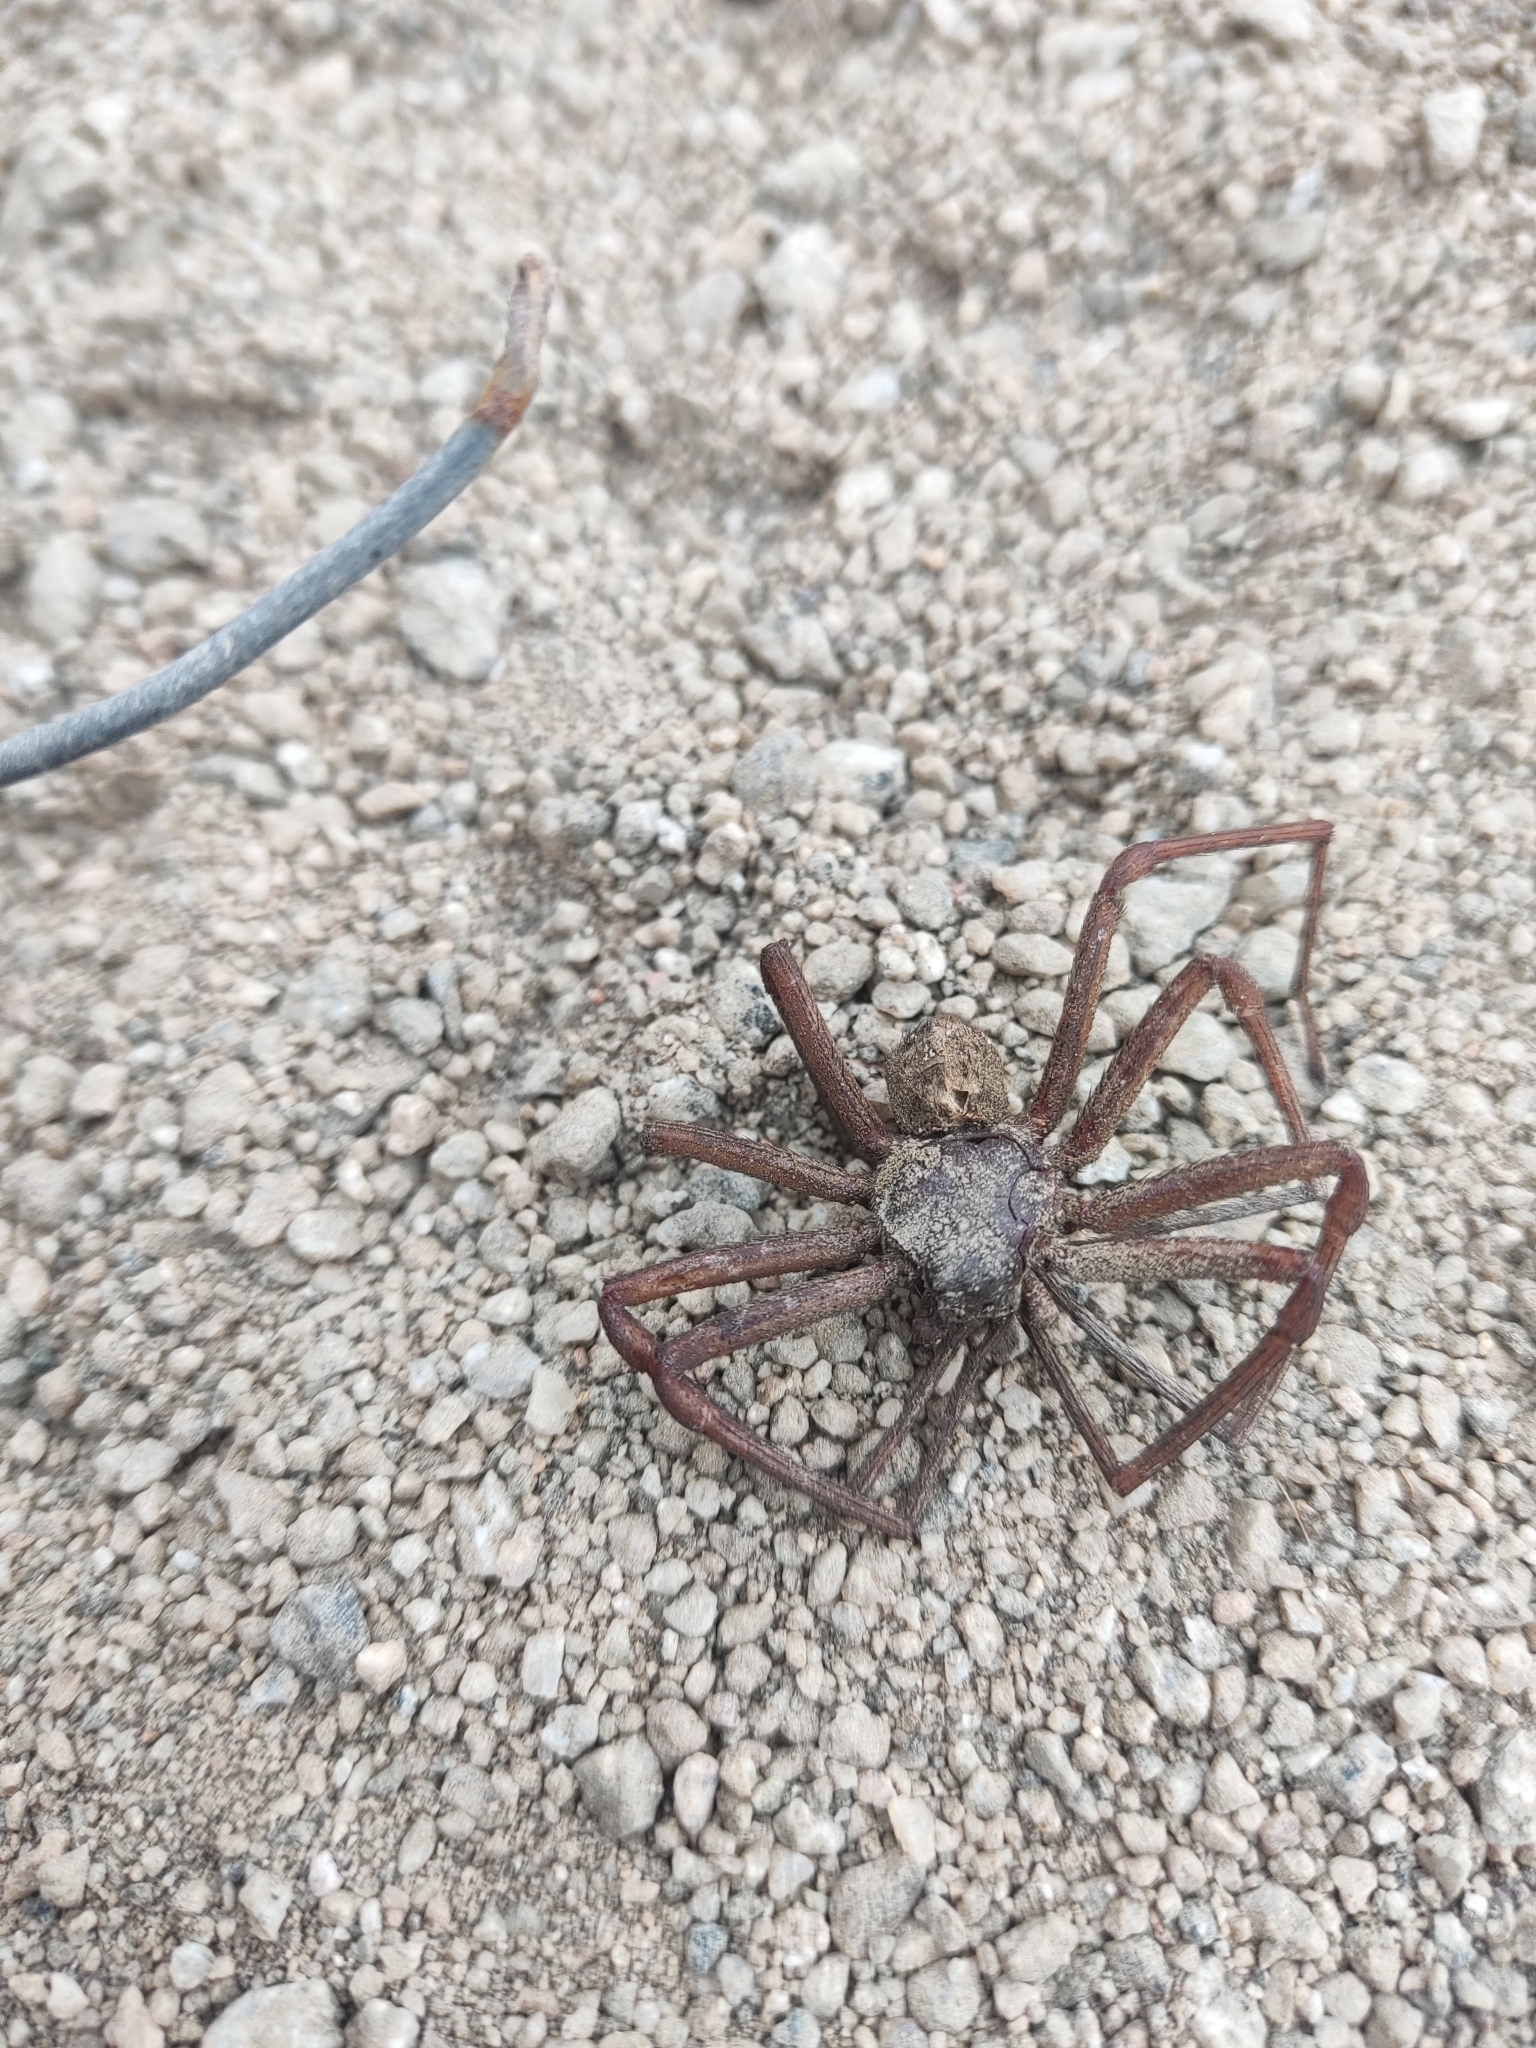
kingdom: Animalia
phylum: Arthropoda
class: Arachnida
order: Araneae
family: Sicariidae
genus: Sicarius
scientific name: Sicarius yurensis
